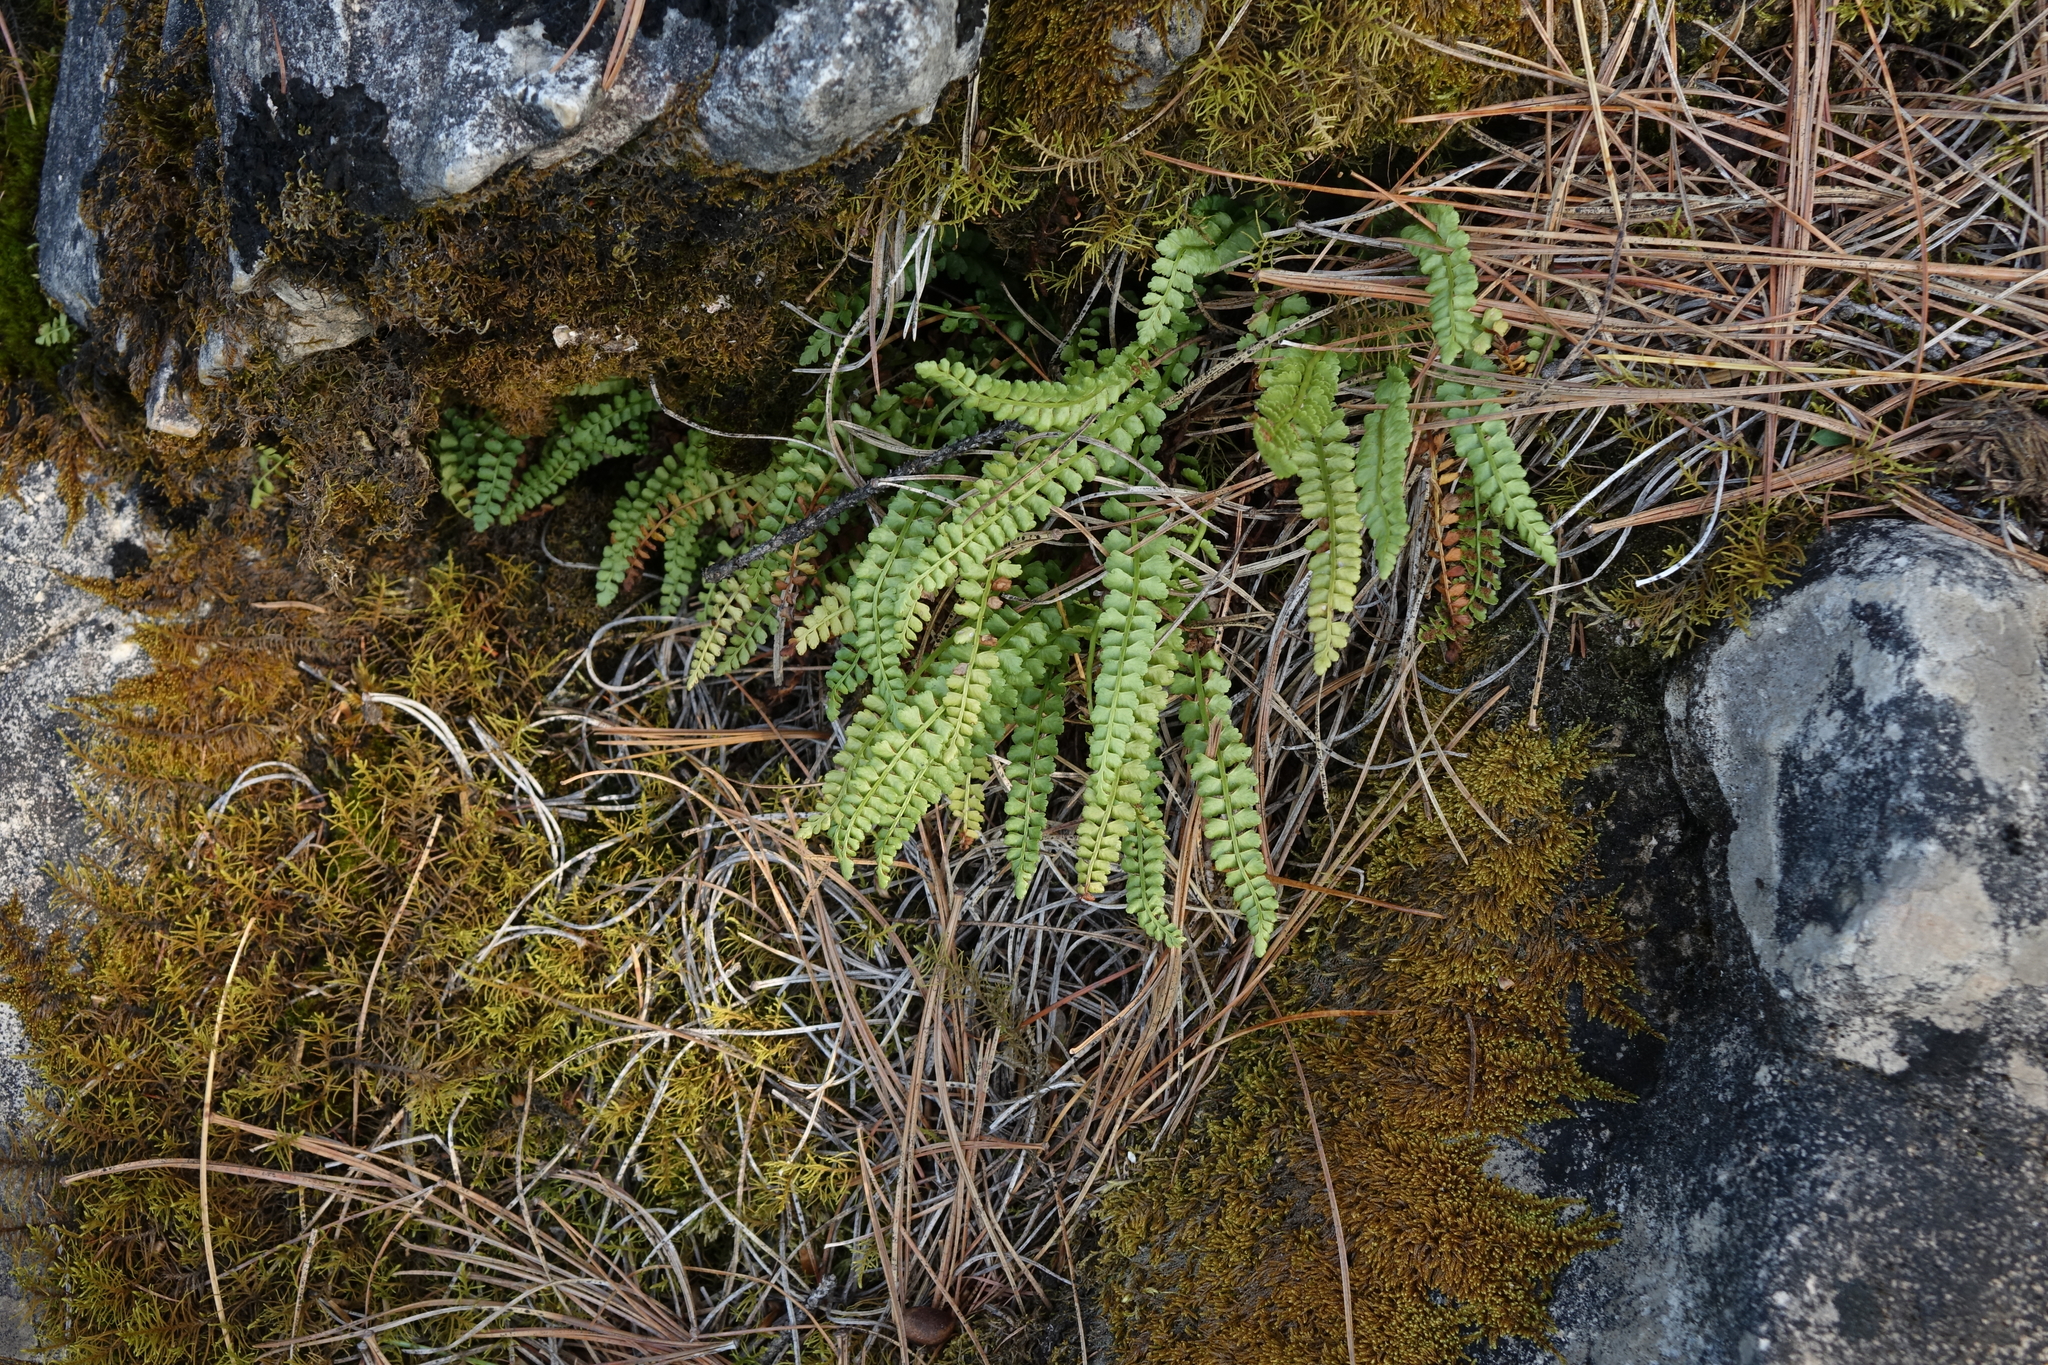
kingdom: Plantae
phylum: Tracheophyta
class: Polypodiopsida
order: Polypodiales
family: Aspleniaceae
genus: Asplenium
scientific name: Asplenium viride
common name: Green spleenwort
